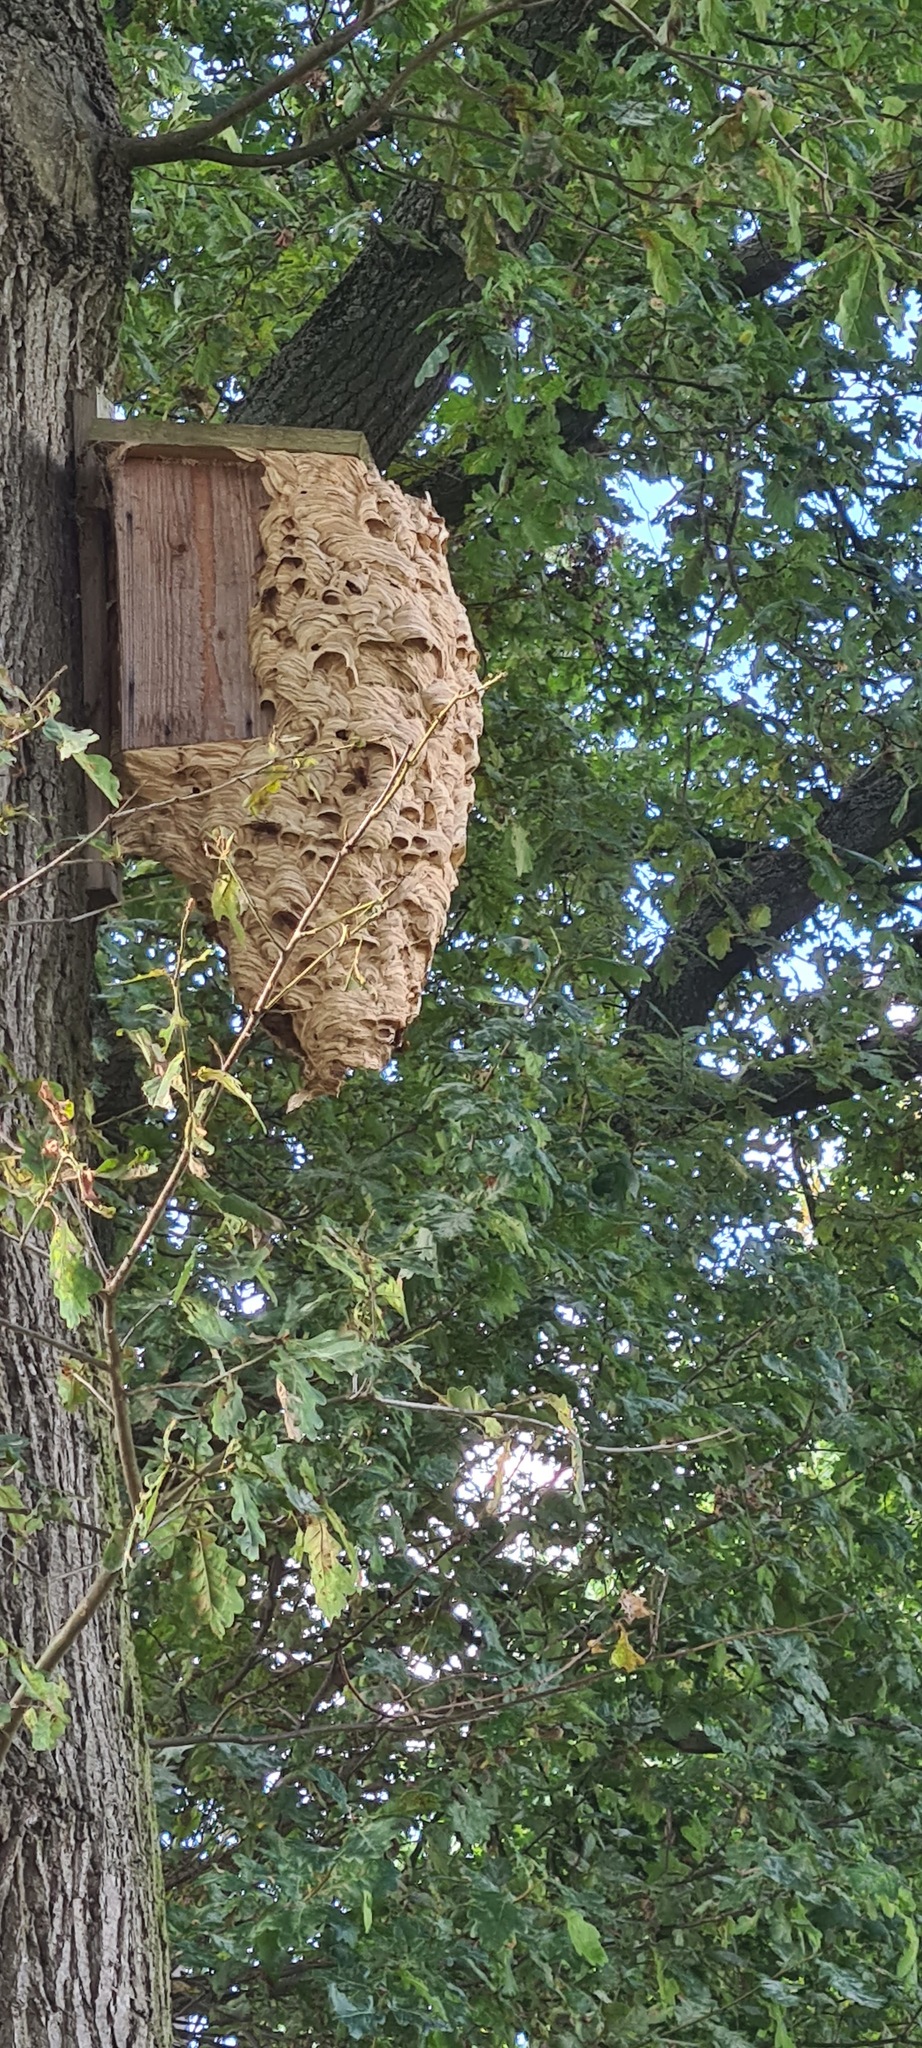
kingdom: Animalia
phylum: Arthropoda
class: Insecta
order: Hymenoptera
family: Vespidae
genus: Vespa
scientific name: Vespa crabro
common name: Hornet
